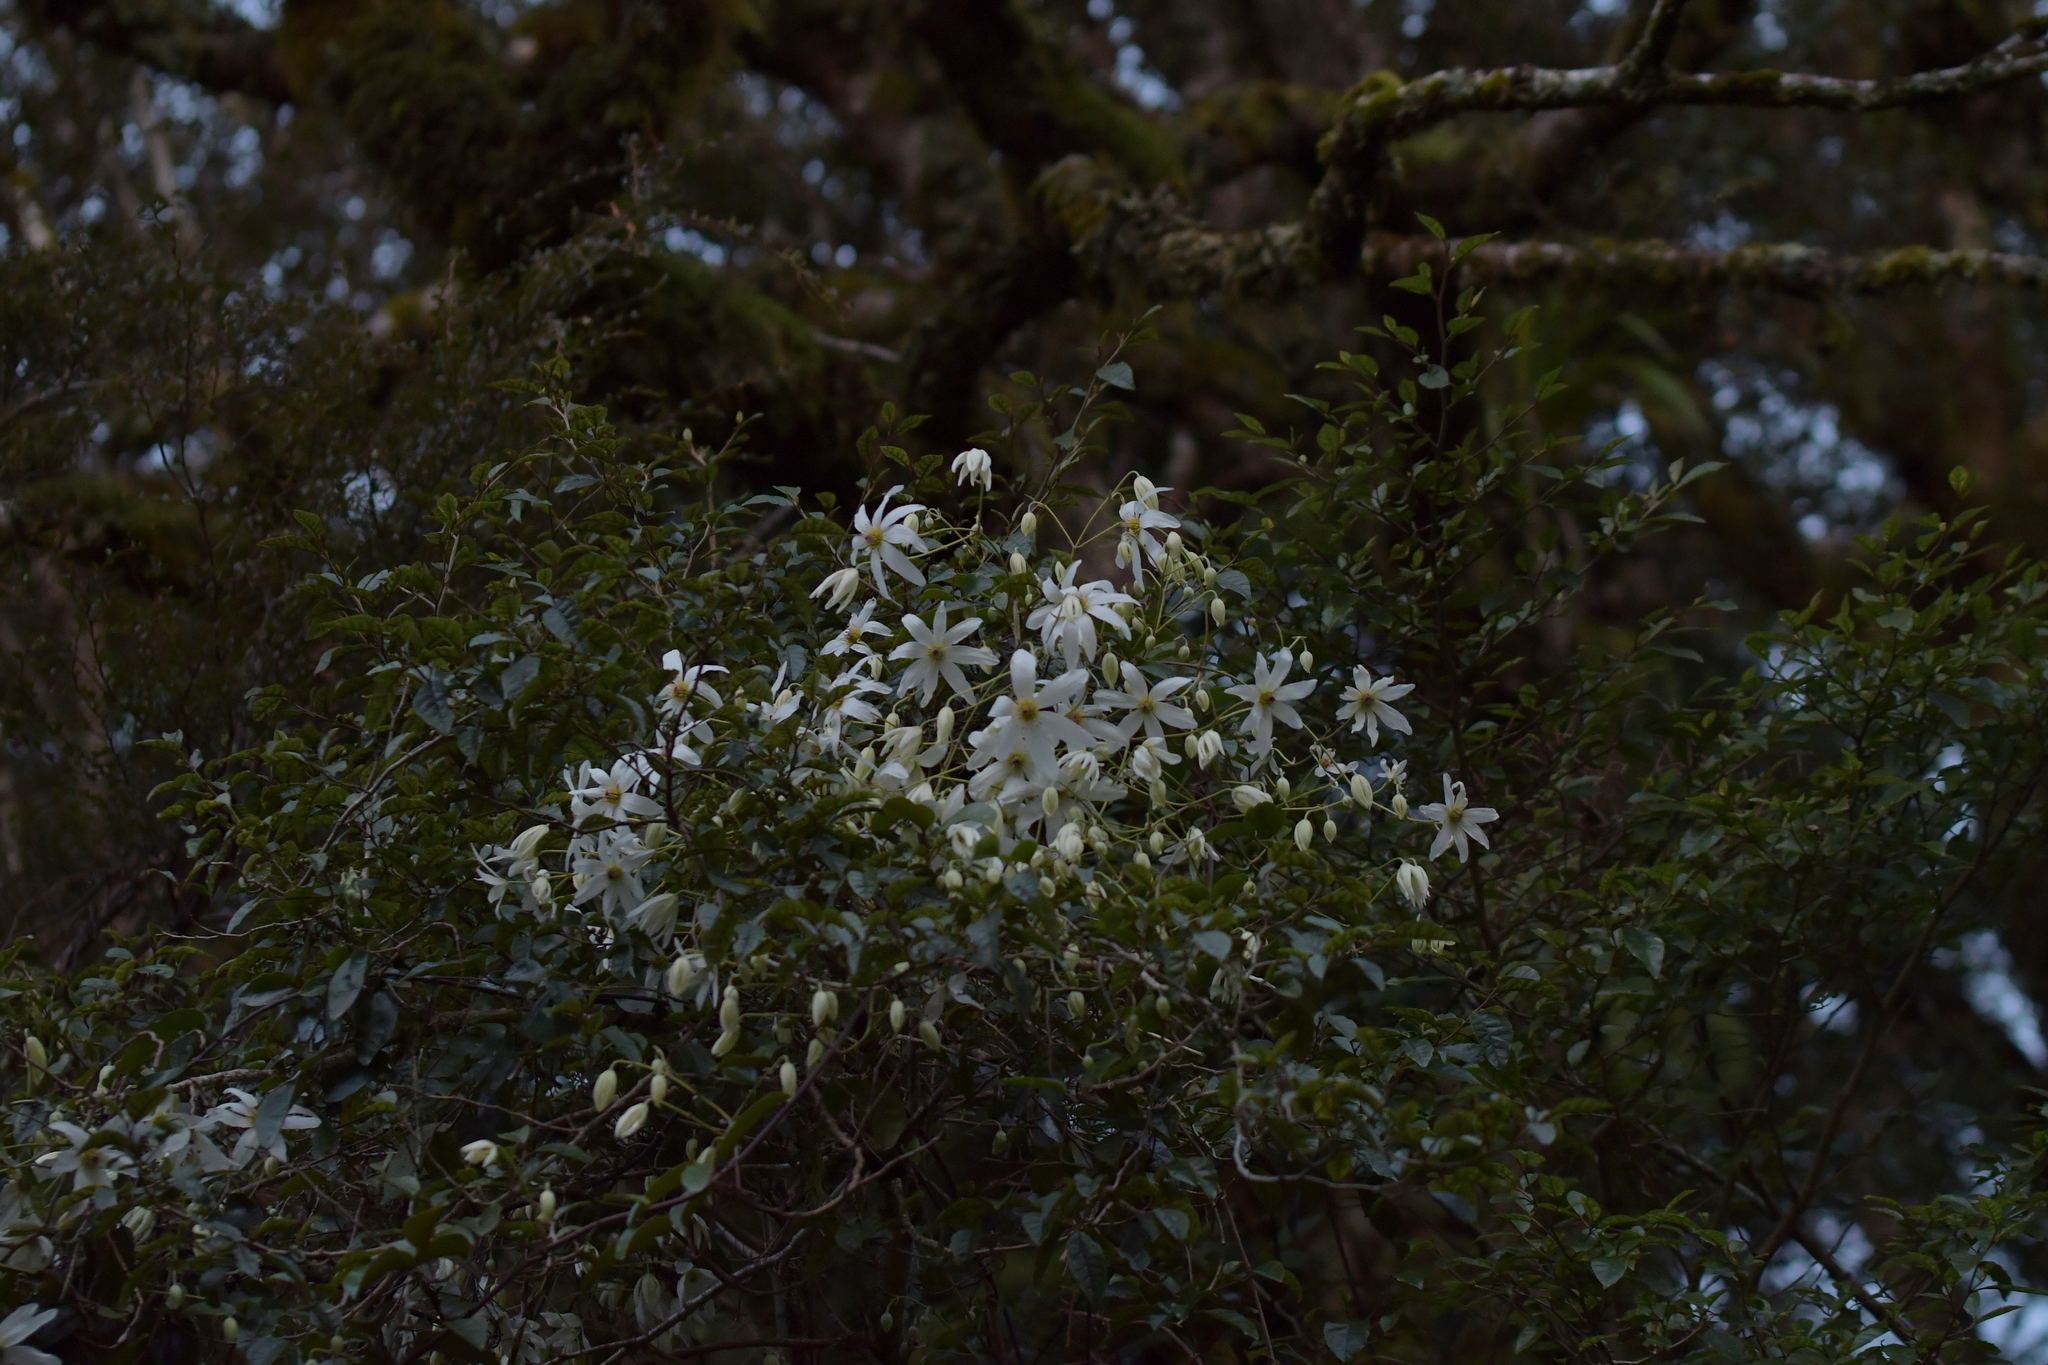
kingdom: Plantae
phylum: Tracheophyta
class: Magnoliopsida
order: Ranunculales
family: Ranunculaceae
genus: Clematis
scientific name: Clematis paniculata
